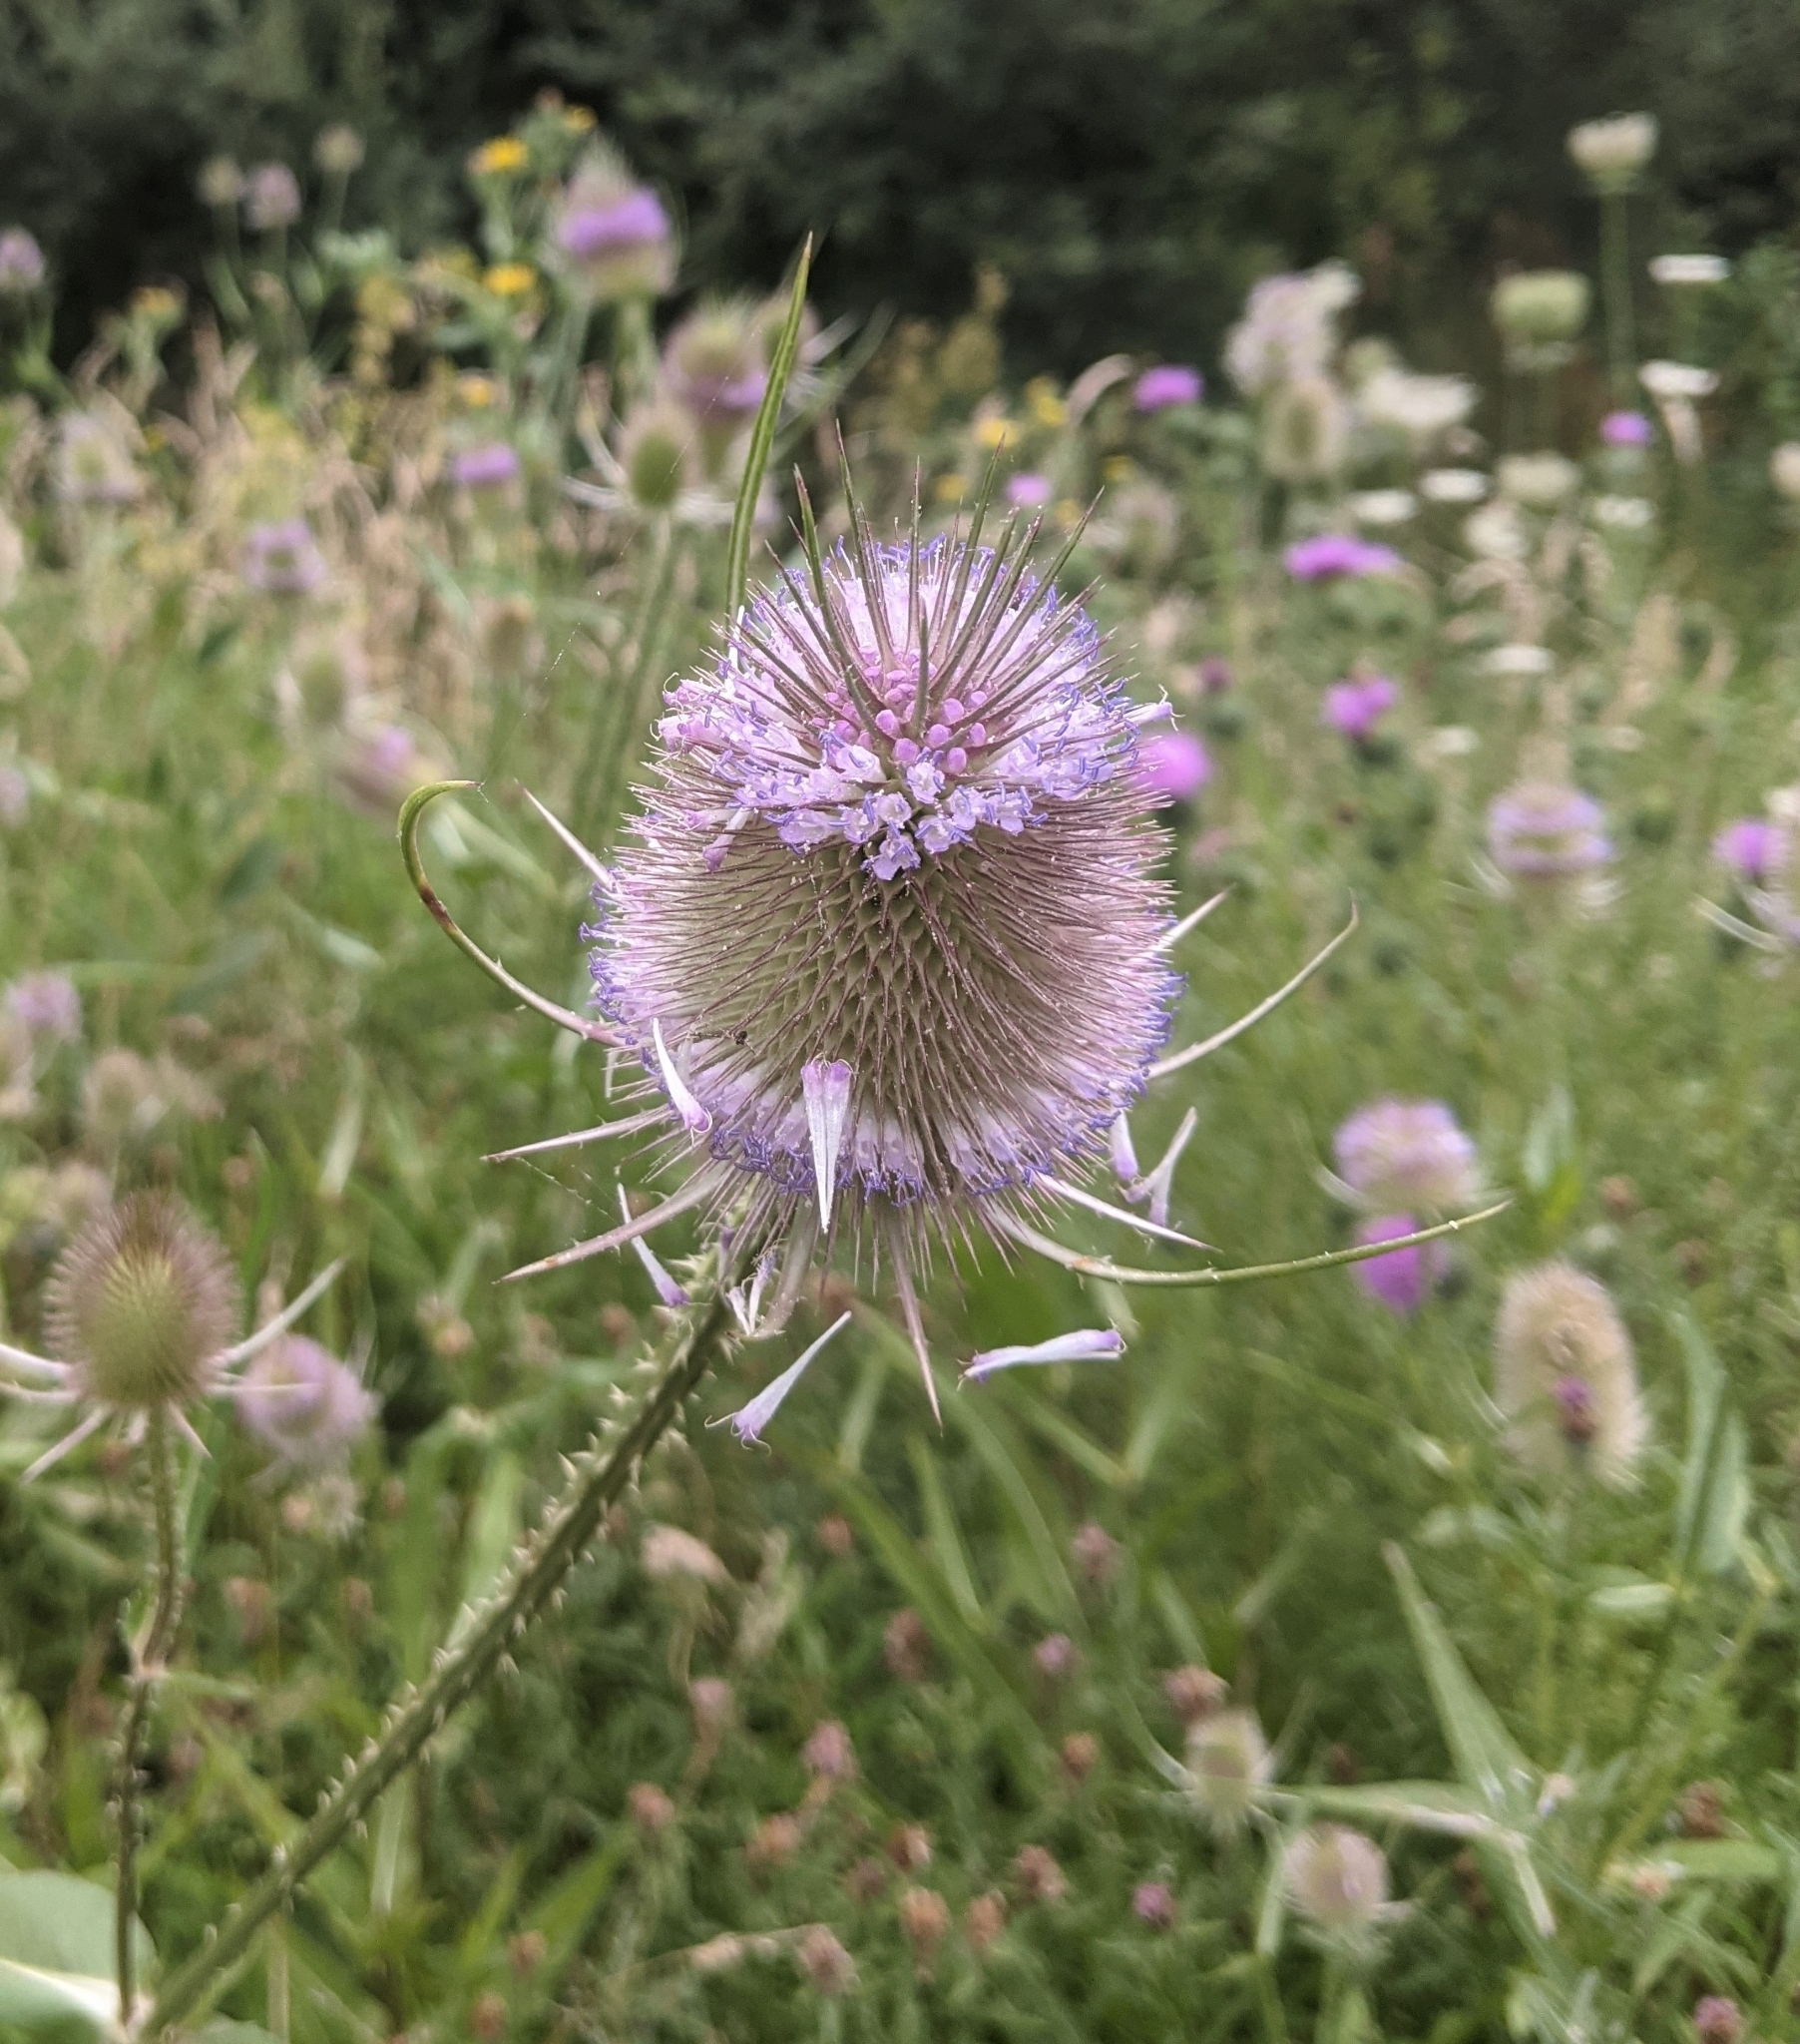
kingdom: Plantae
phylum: Tracheophyta
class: Magnoliopsida
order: Dipsacales
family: Caprifoliaceae
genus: Dipsacus
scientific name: Dipsacus fullonum
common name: Teasel
